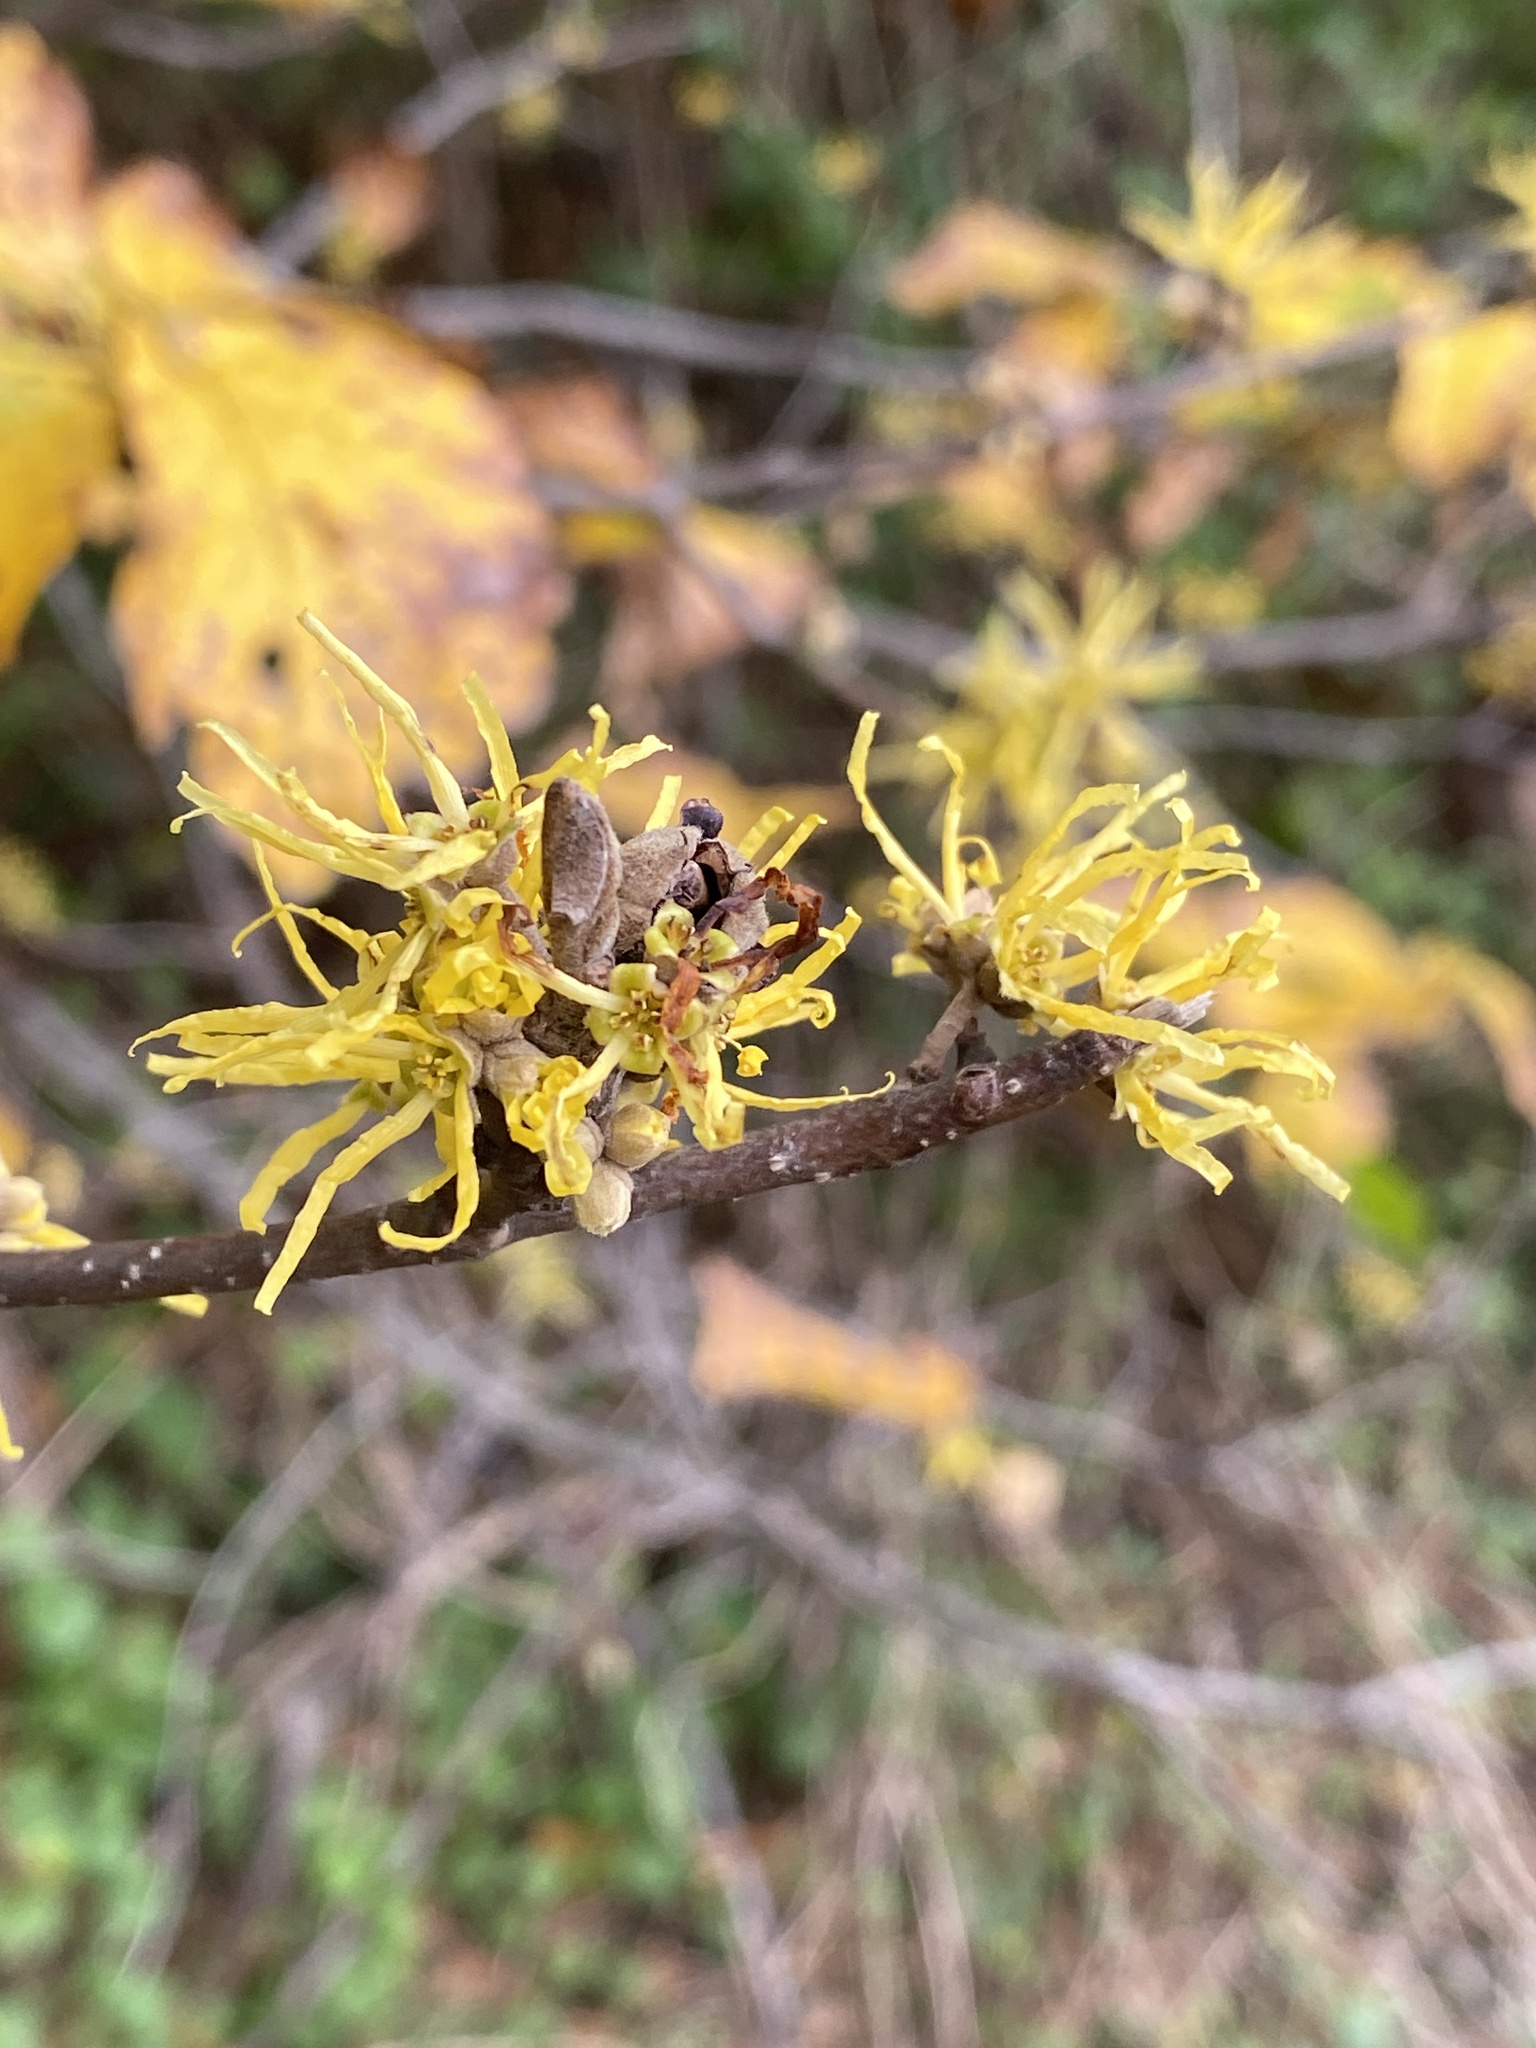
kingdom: Plantae
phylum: Tracheophyta
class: Magnoliopsida
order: Saxifragales
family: Hamamelidaceae
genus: Hamamelis
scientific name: Hamamelis virginiana
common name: Witch-hazel
